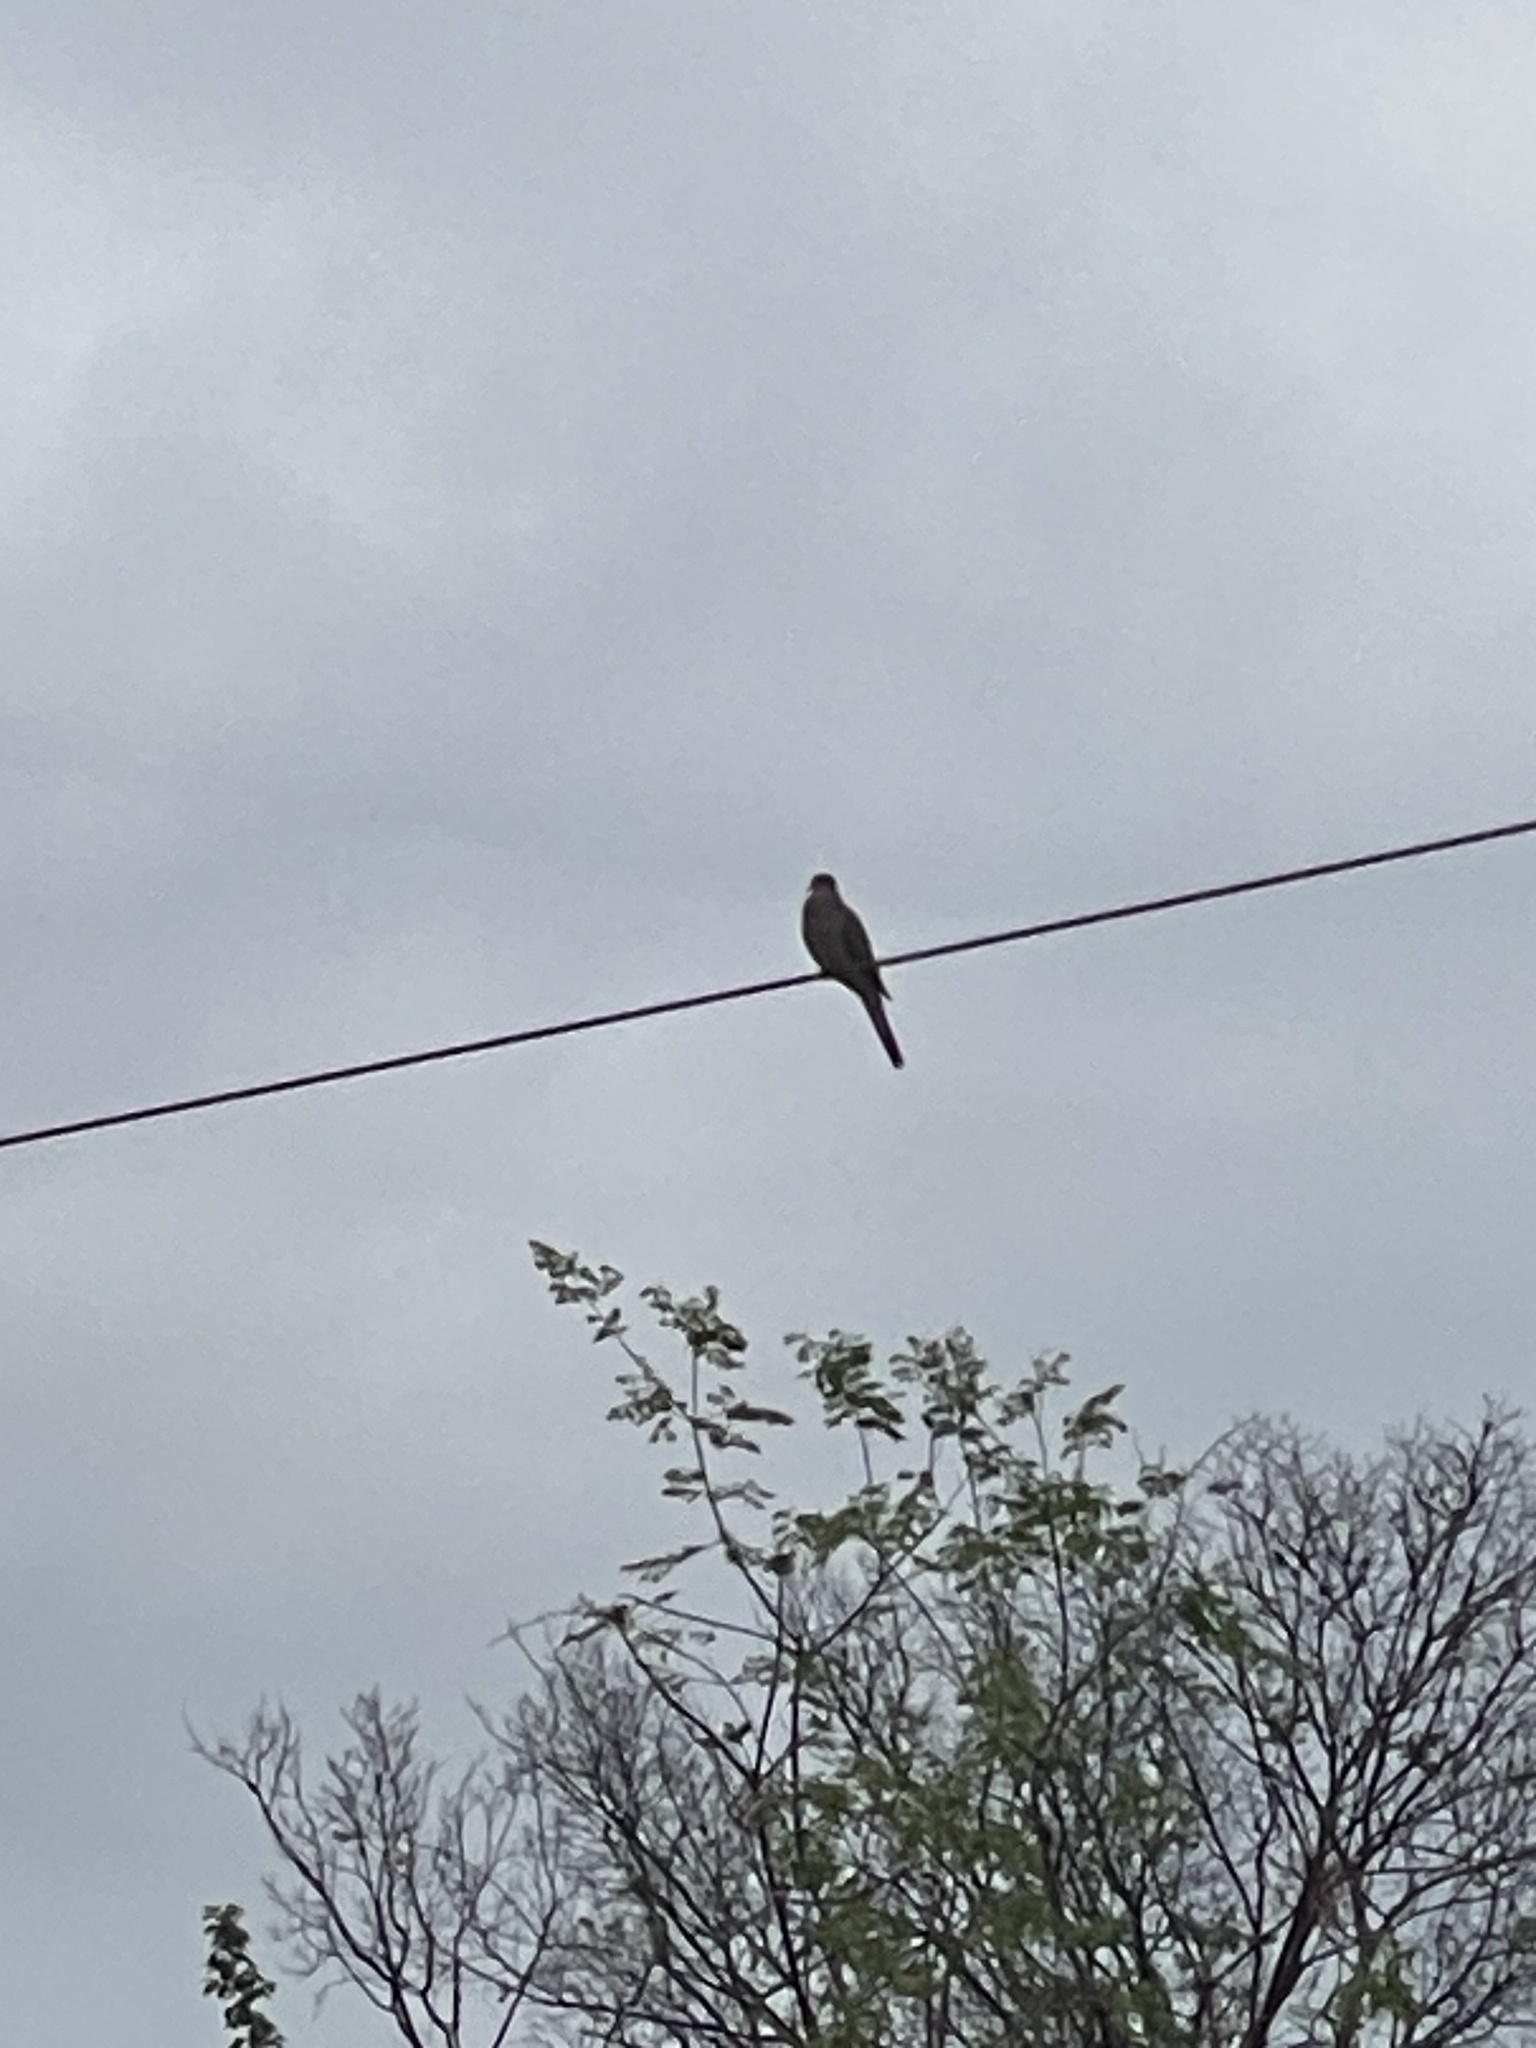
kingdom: Animalia
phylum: Chordata
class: Aves
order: Columbiformes
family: Columbidae
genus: Zenaida
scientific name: Zenaida macroura
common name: Mourning dove
